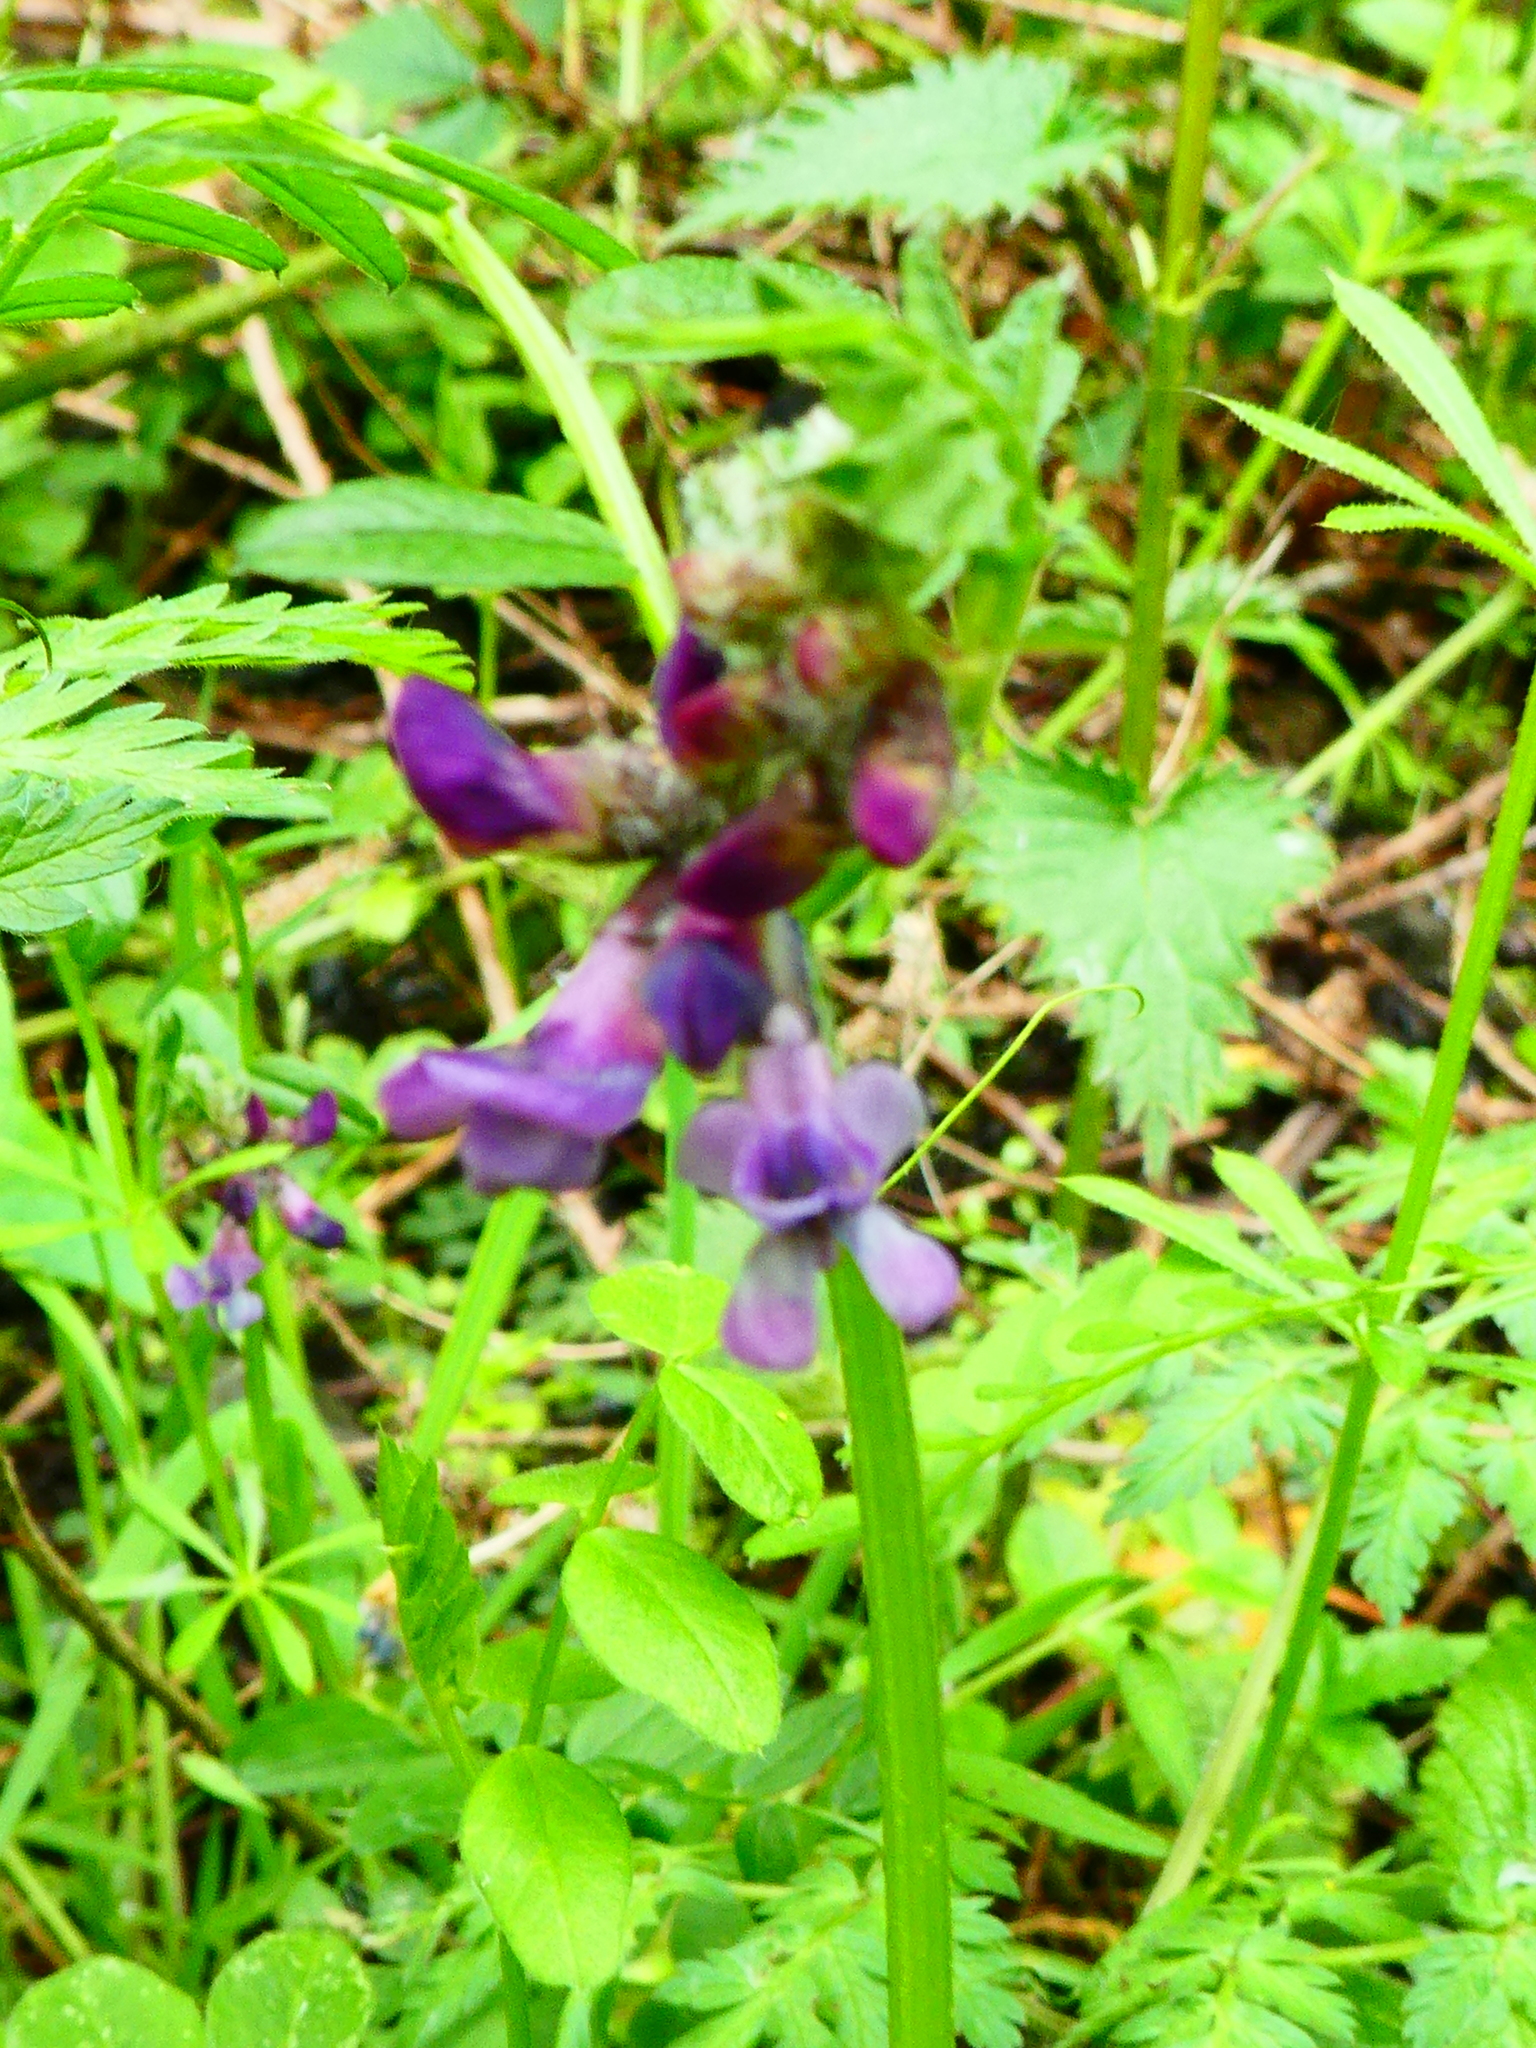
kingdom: Plantae
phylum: Tracheophyta
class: Magnoliopsida
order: Fabales
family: Fabaceae
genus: Vicia
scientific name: Vicia sepium
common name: Bush vetch
